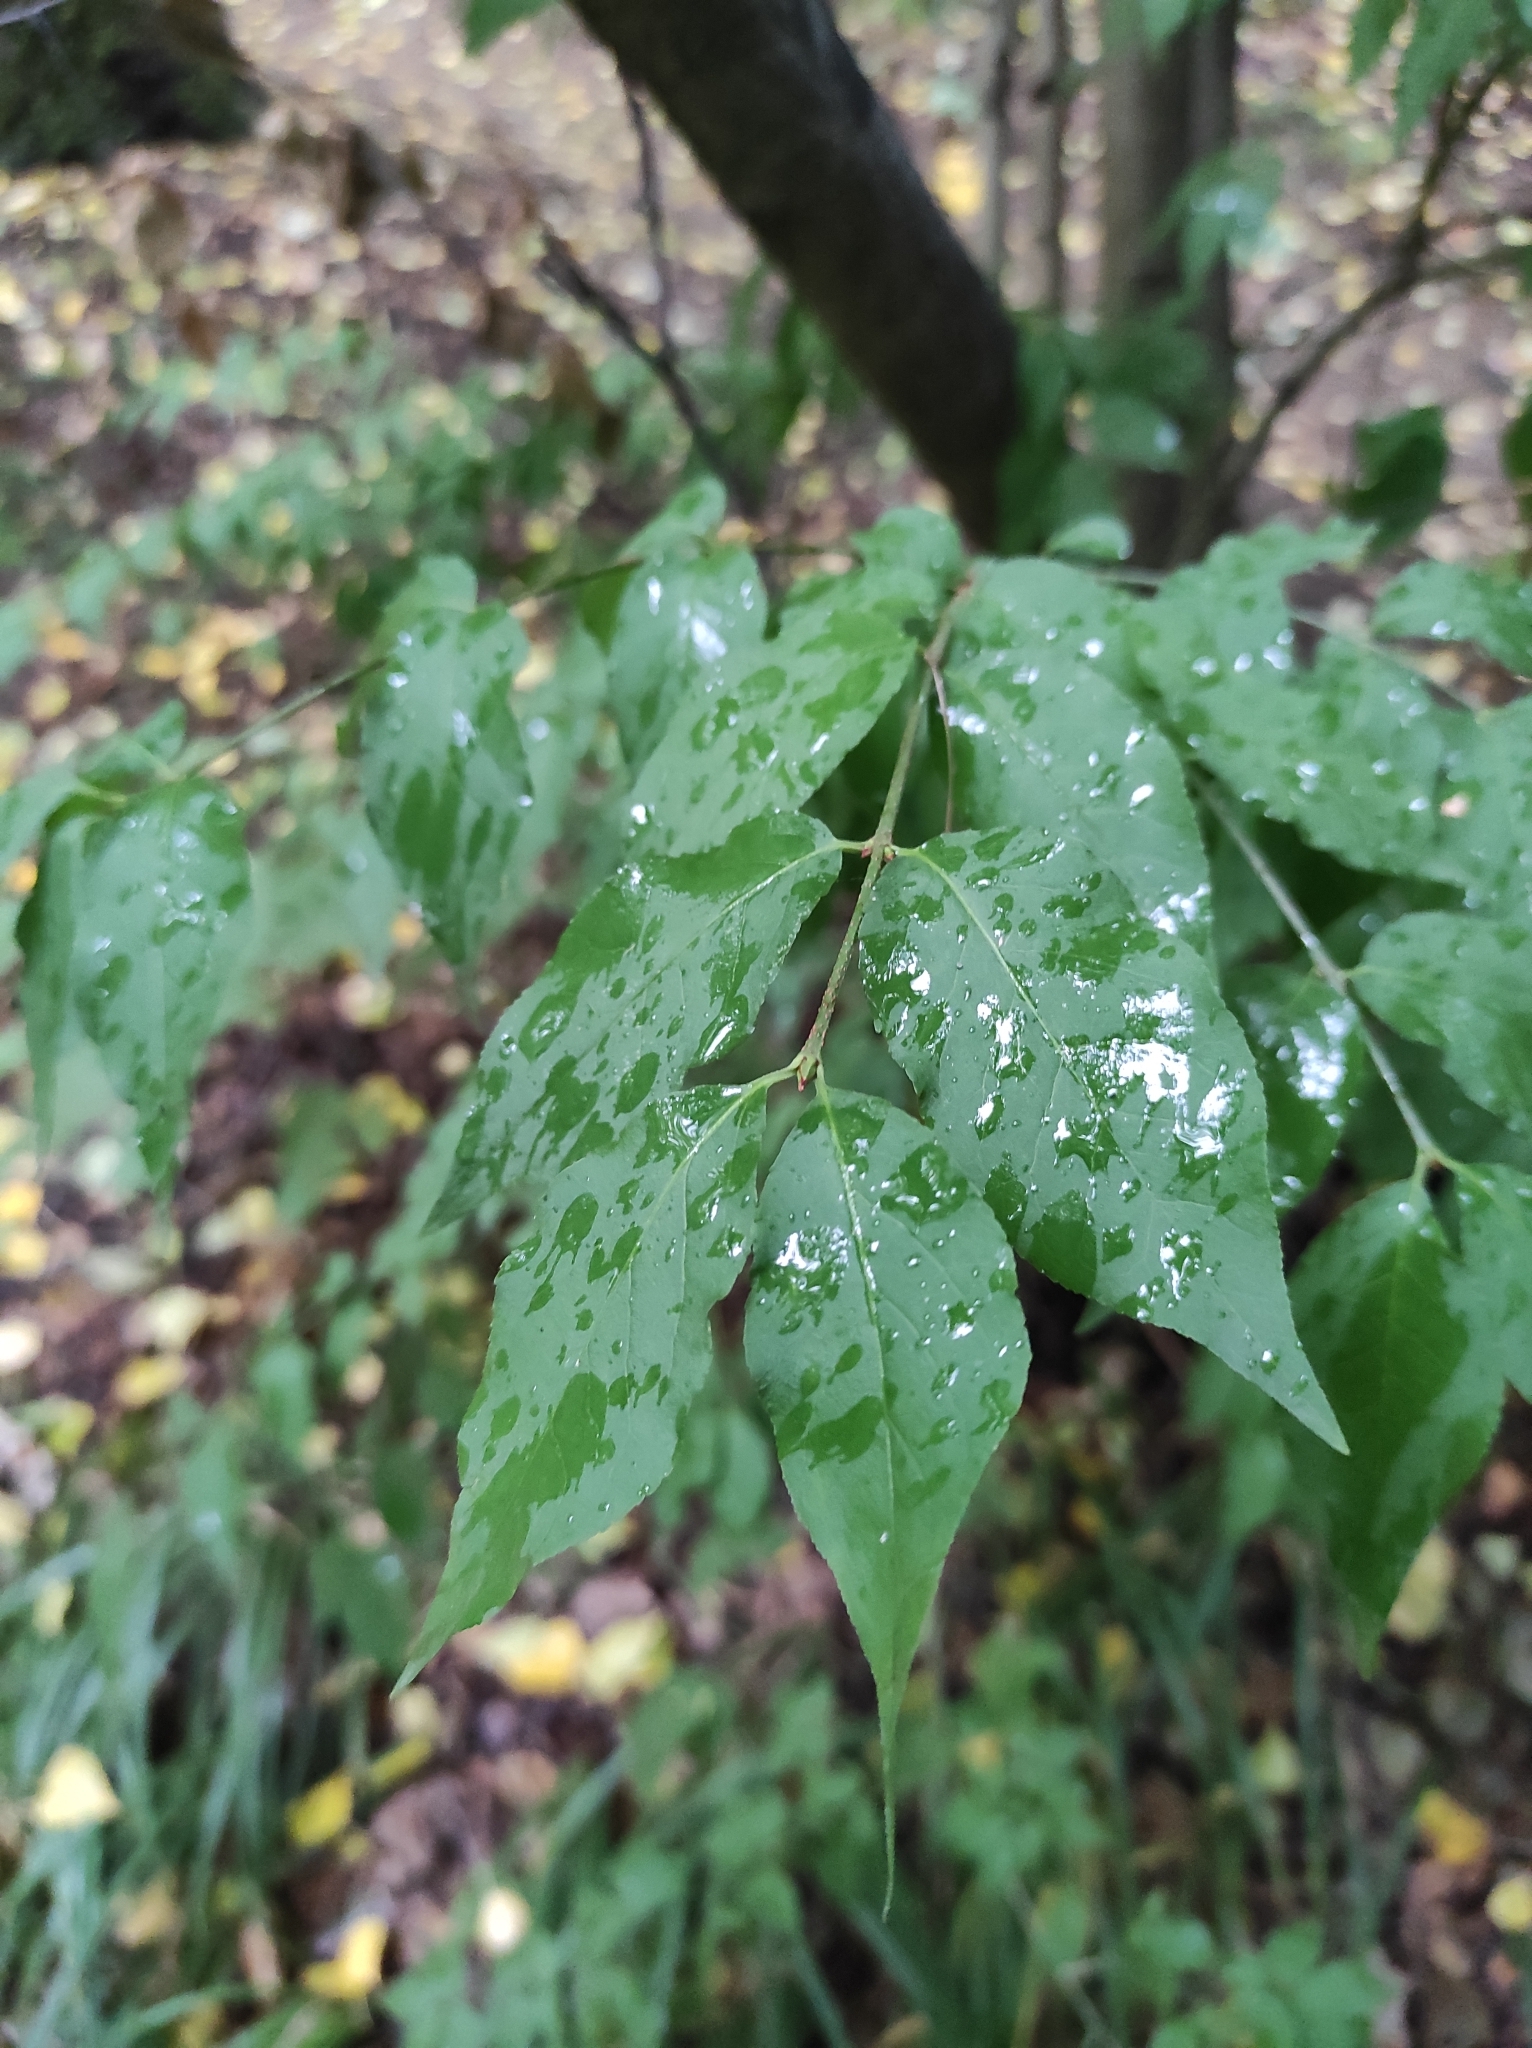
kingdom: Plantae
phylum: Tracheophyta
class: Magnoliopsida
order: Celastrales
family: Celastraceae
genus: Euonymus
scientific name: Euonymus verrucosus
